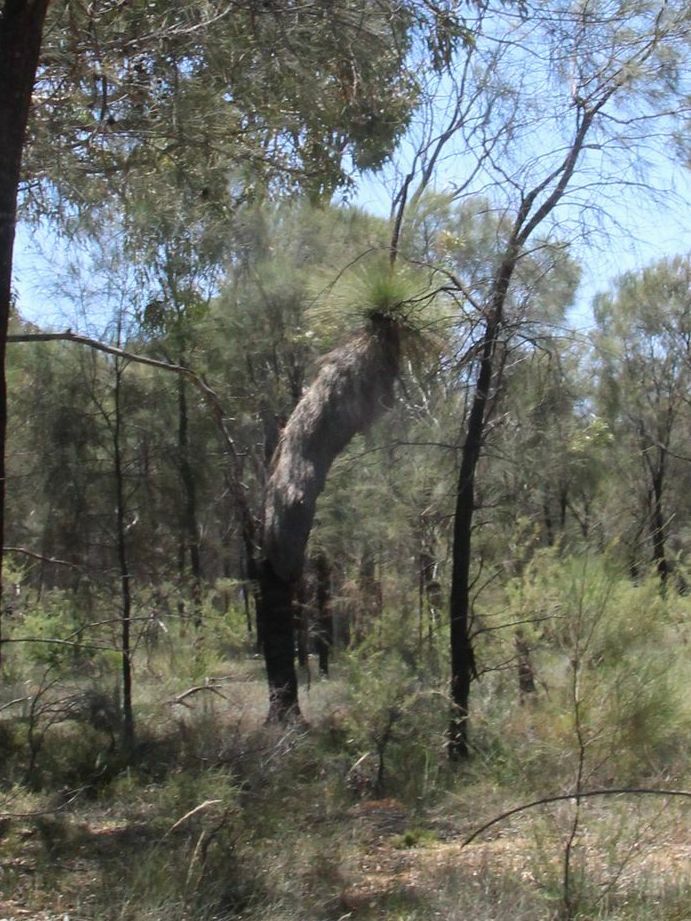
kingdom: Plantae
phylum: Tracheophyta
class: Liliopsida
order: Asparagales
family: Asphodelaceae
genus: Xanthorrhoea
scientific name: Xanthorrhoea drummondii
